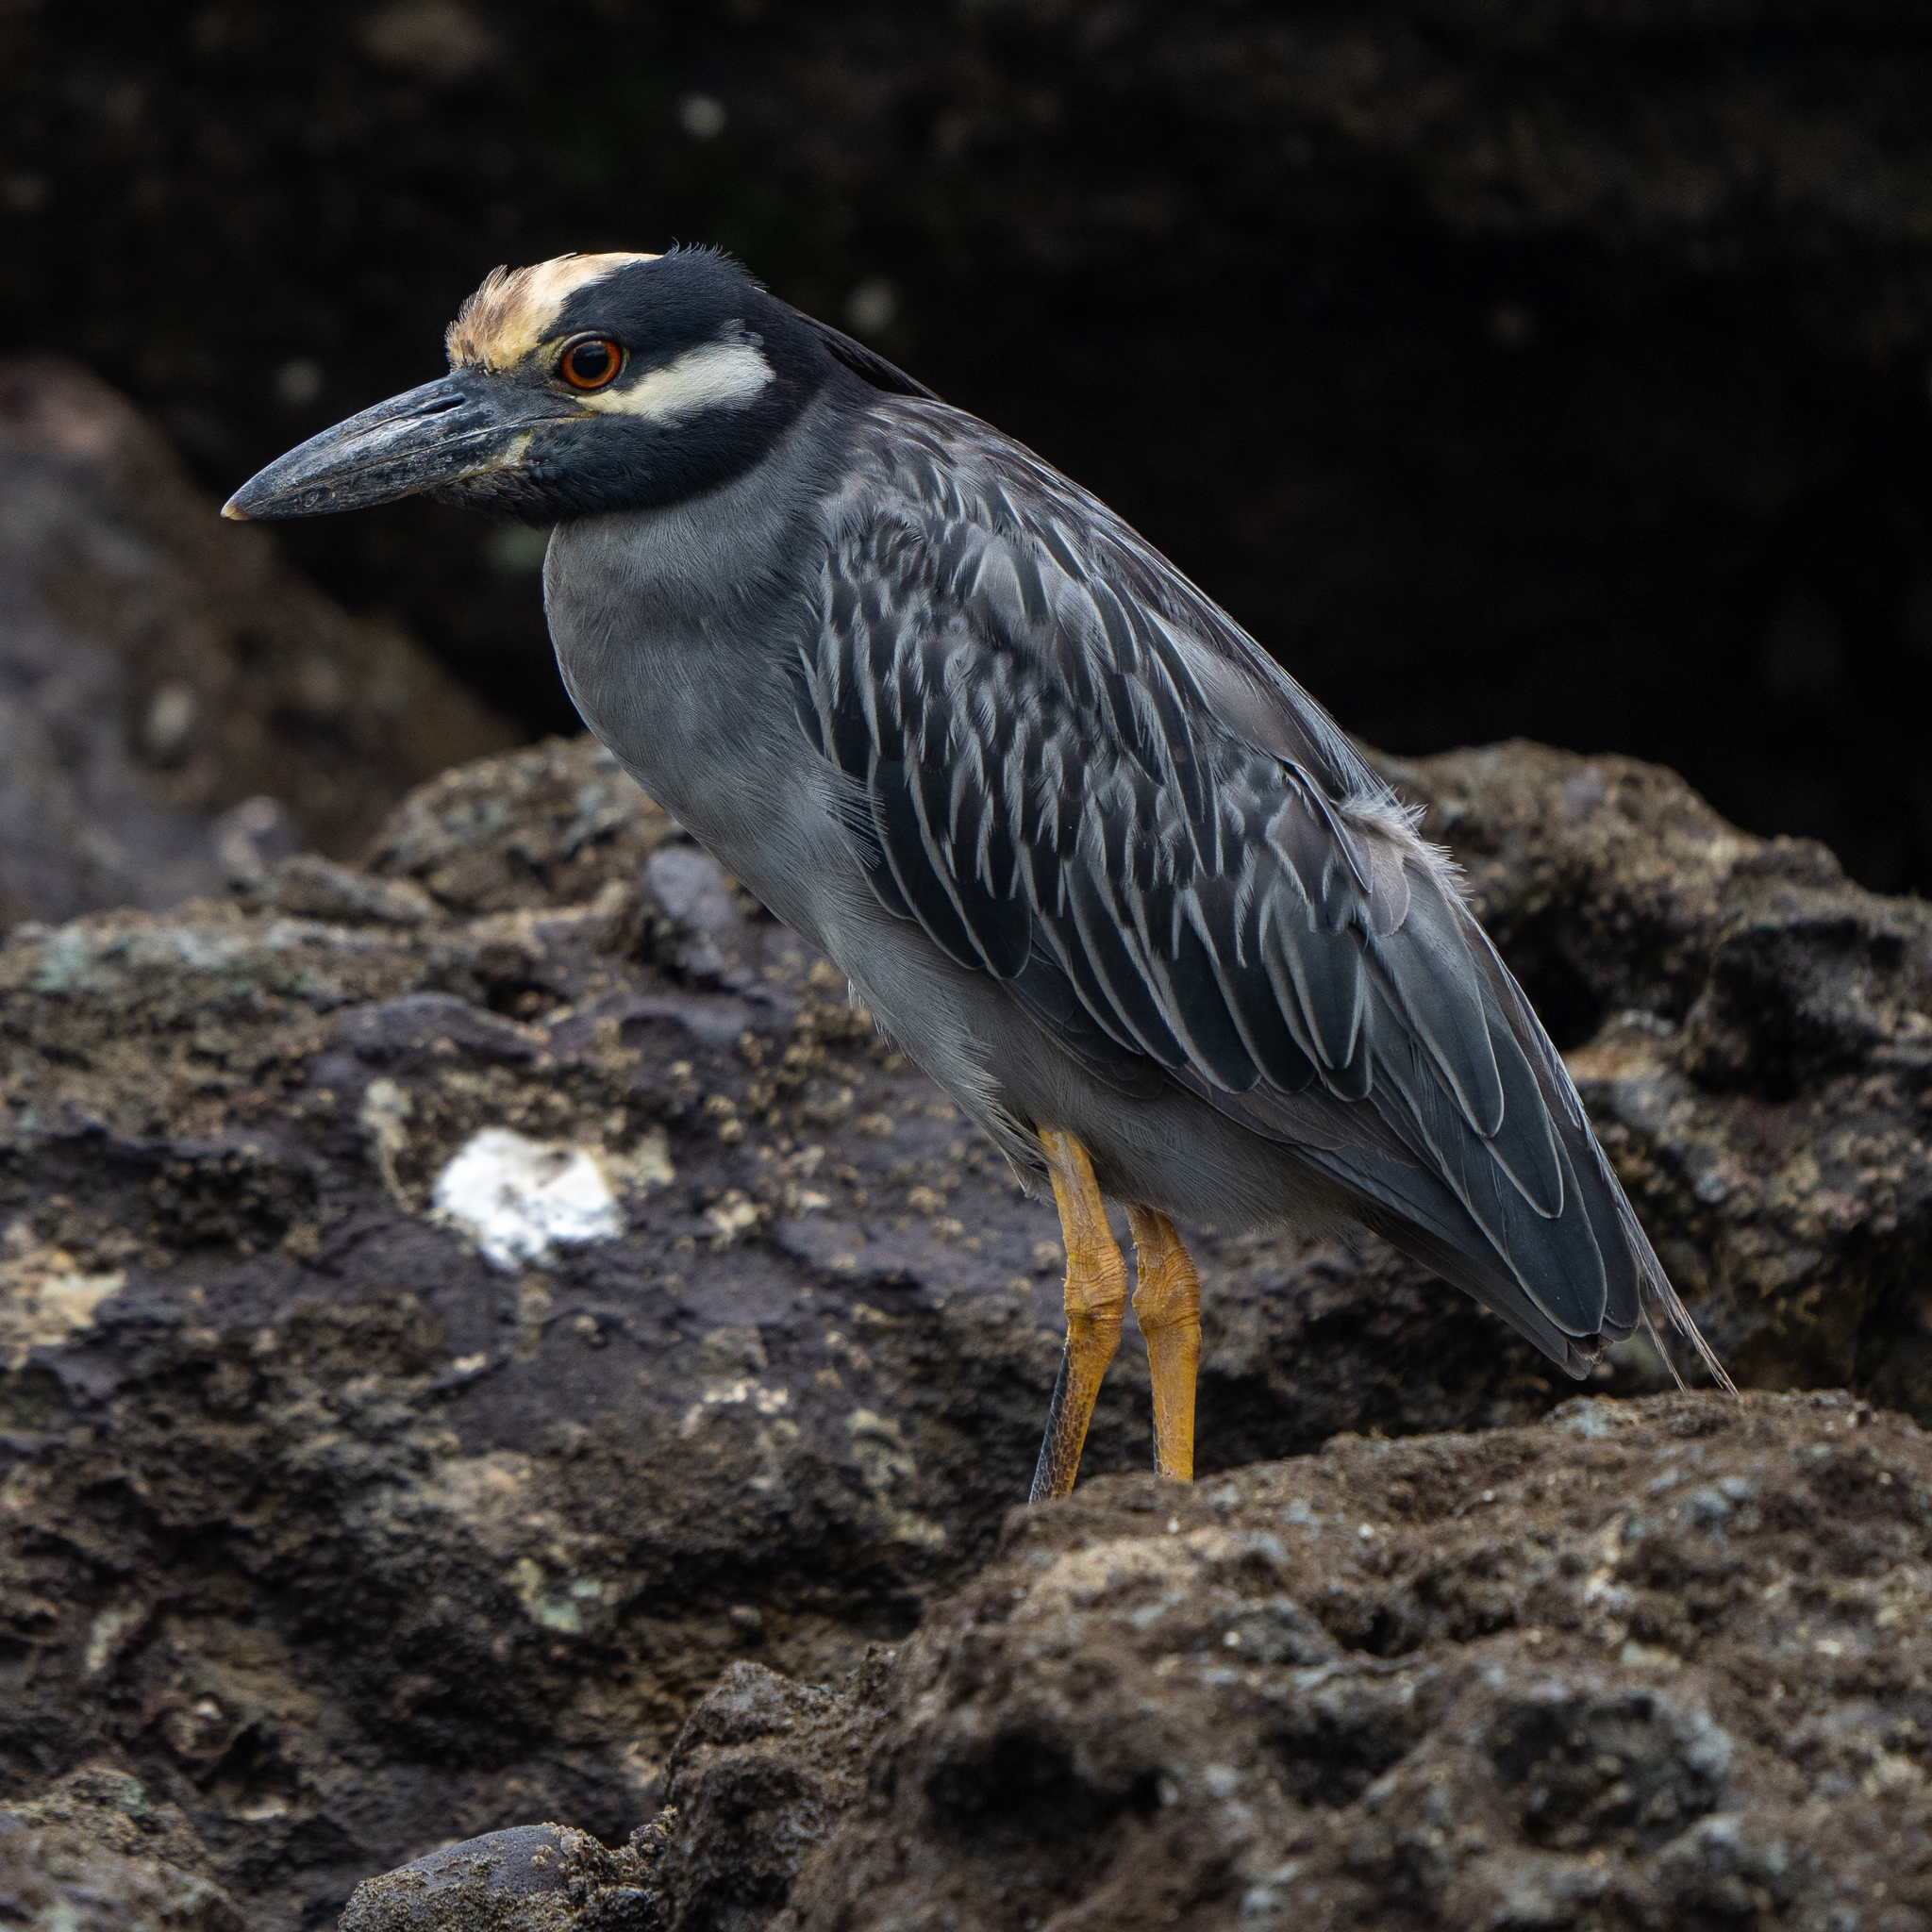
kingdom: Animalia
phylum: Chordata
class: Aves
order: Pelecaniformes
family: Ardeidae
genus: Nyctanassa
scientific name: Nyctanassa violacea
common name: Yellow-crowned night heron
